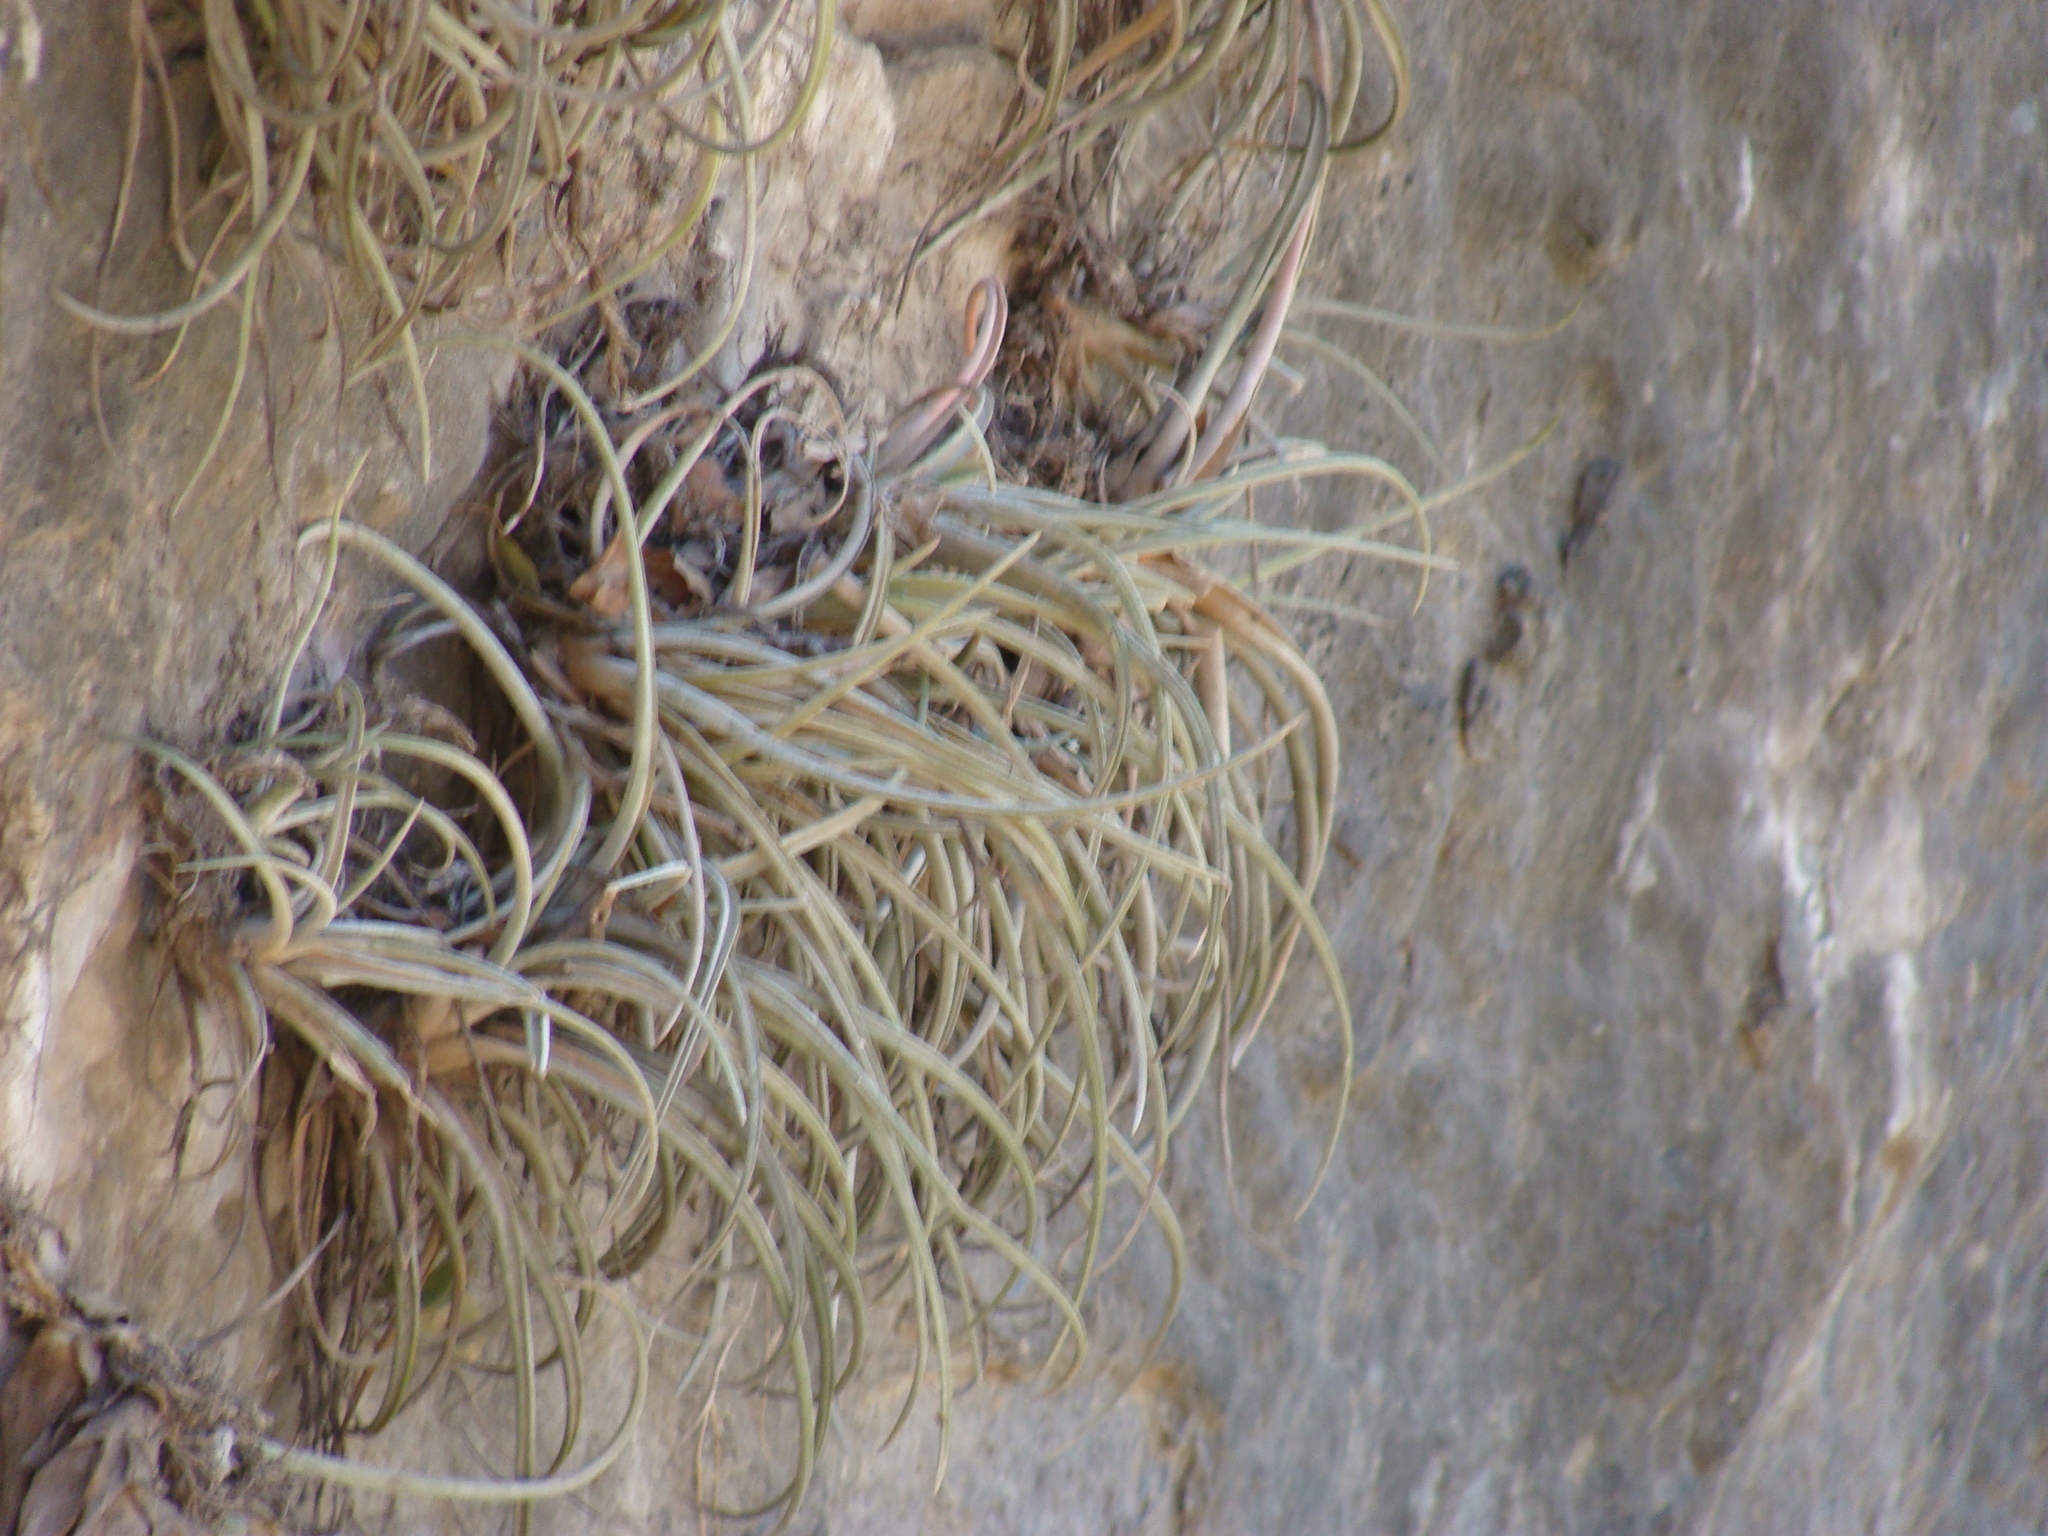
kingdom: Plantae
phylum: Tracheophyta
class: Liliopsida
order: Poales
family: Bromeliaceae
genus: Tillandsia
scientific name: Tillandsia pueblensis
